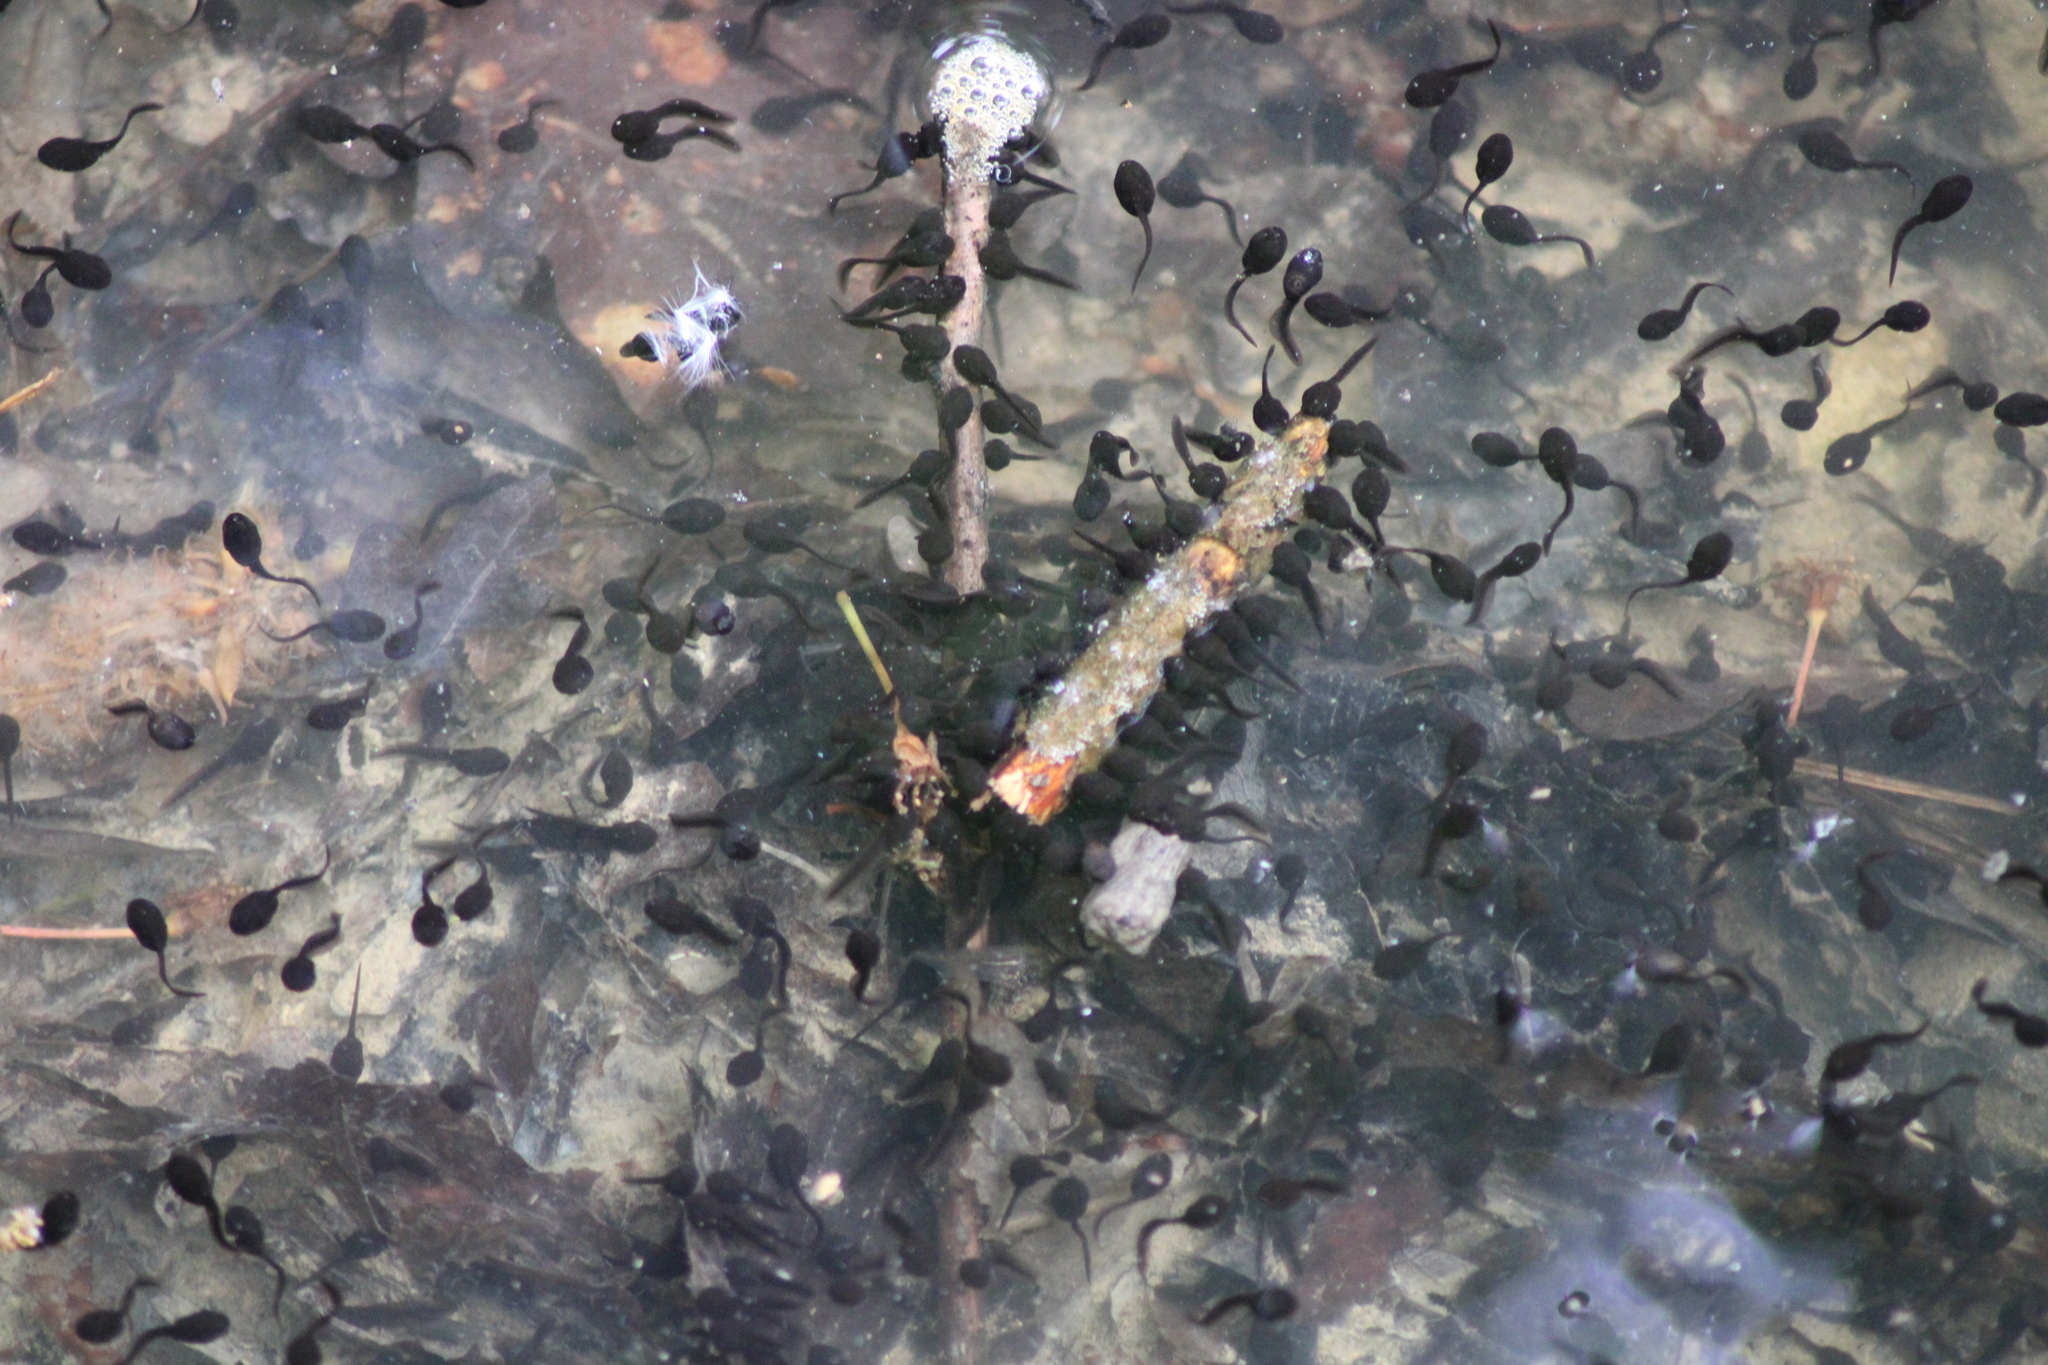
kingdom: Animalia
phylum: Chordata
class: Amphibia
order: Anura
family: Bufonidae
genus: Bufo
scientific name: Bufo bufo
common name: Common toad
